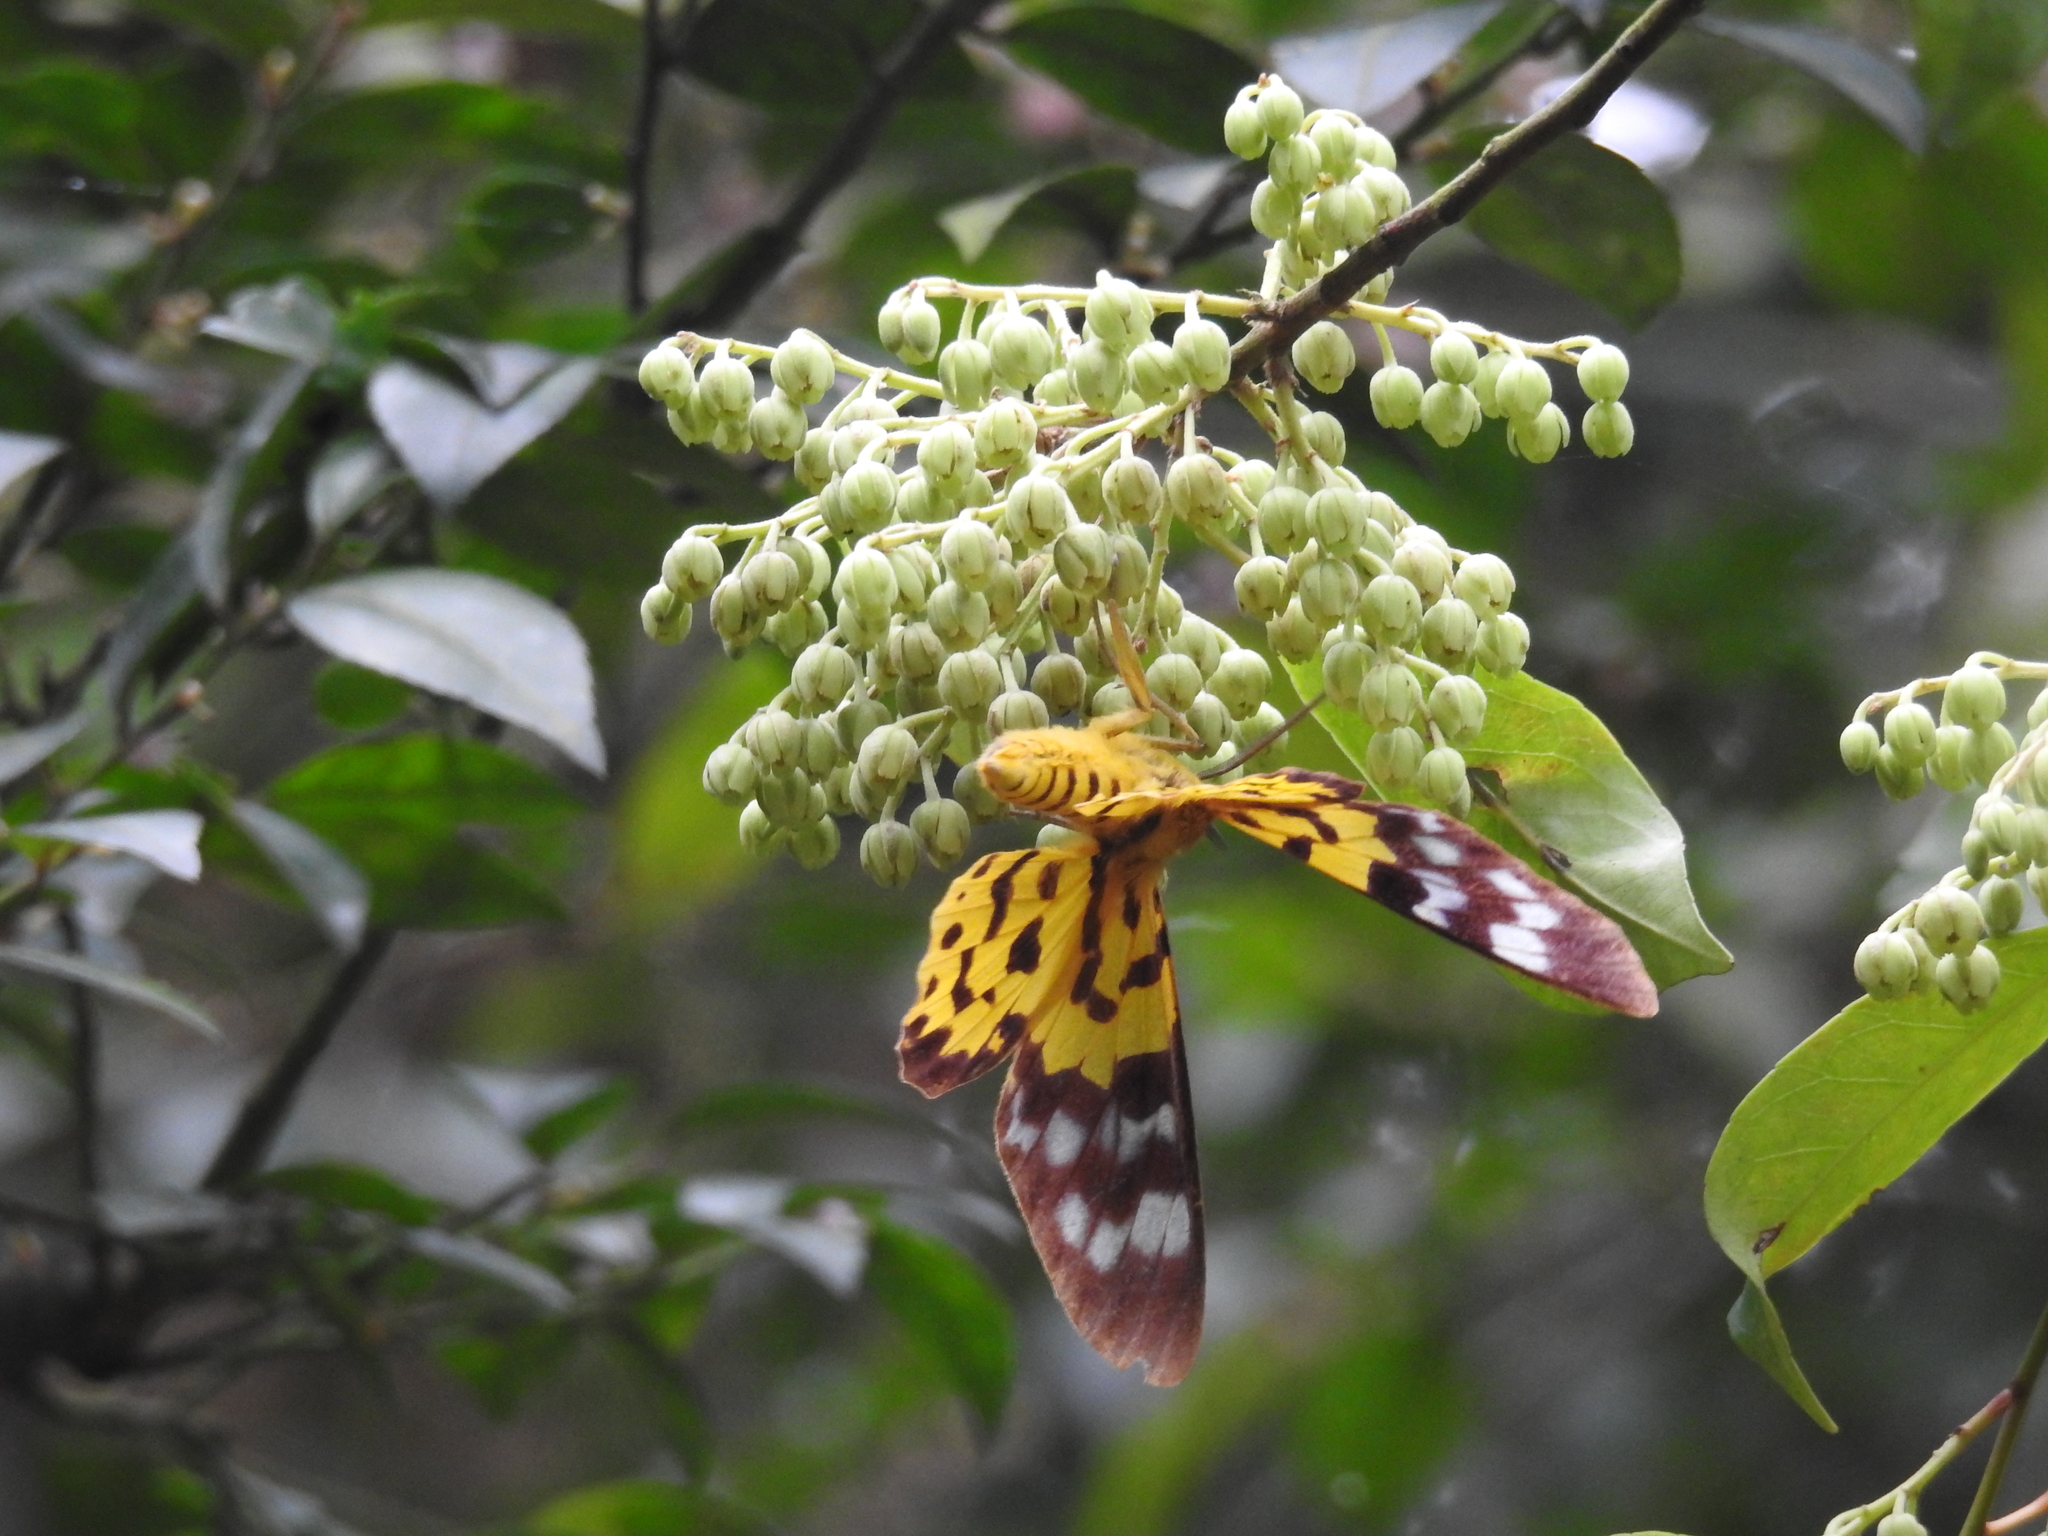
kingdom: Animalia
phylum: Arthropoda
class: Insecta
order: Lepidoptera
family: Geometridae
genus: Dysphania
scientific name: Dysphania militaris
